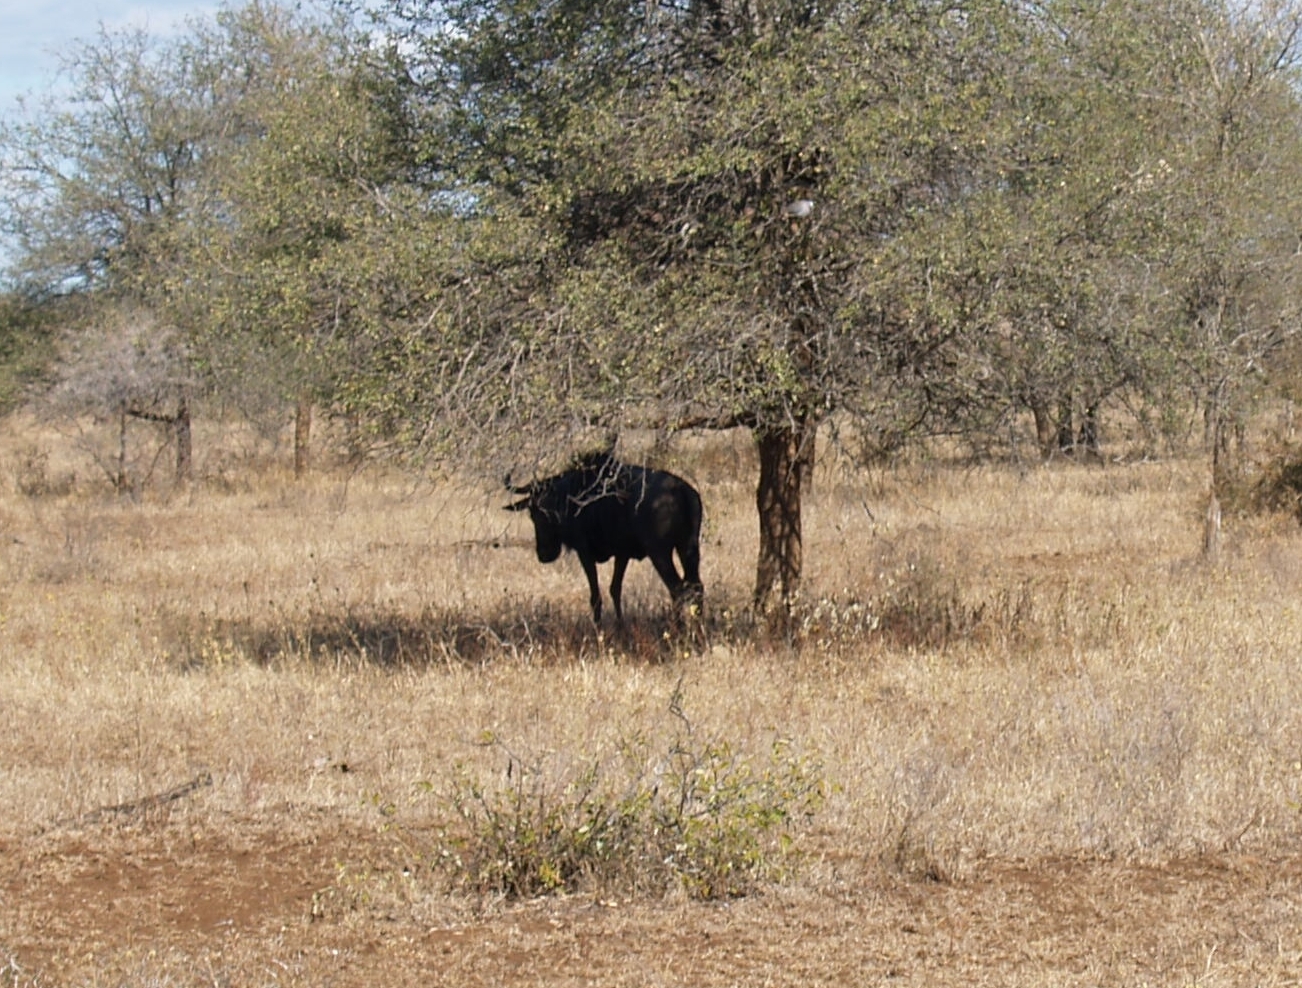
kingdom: Animalia
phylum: Chordata
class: Mammalia
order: Artiodactyla
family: Bovidae
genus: Connochaetes
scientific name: Connochaetes taurinus
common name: Blue wildebeest
